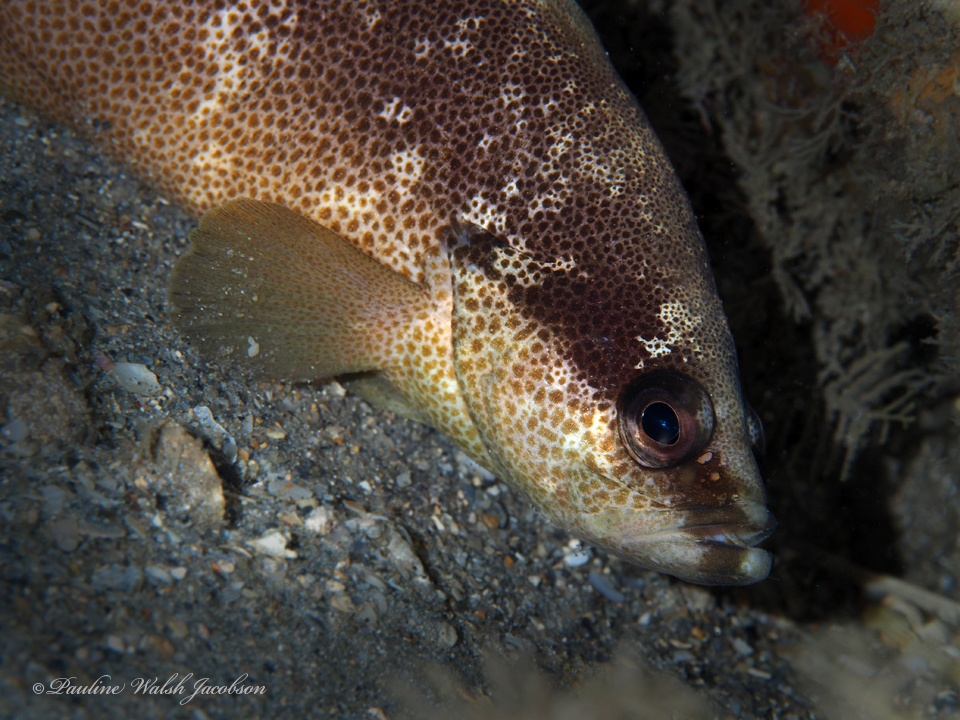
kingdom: Animalia
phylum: Chordata
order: Perciformes
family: Serranidae
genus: Rypticus
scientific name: Rypticus bistrispinus
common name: Freckled soapfish
